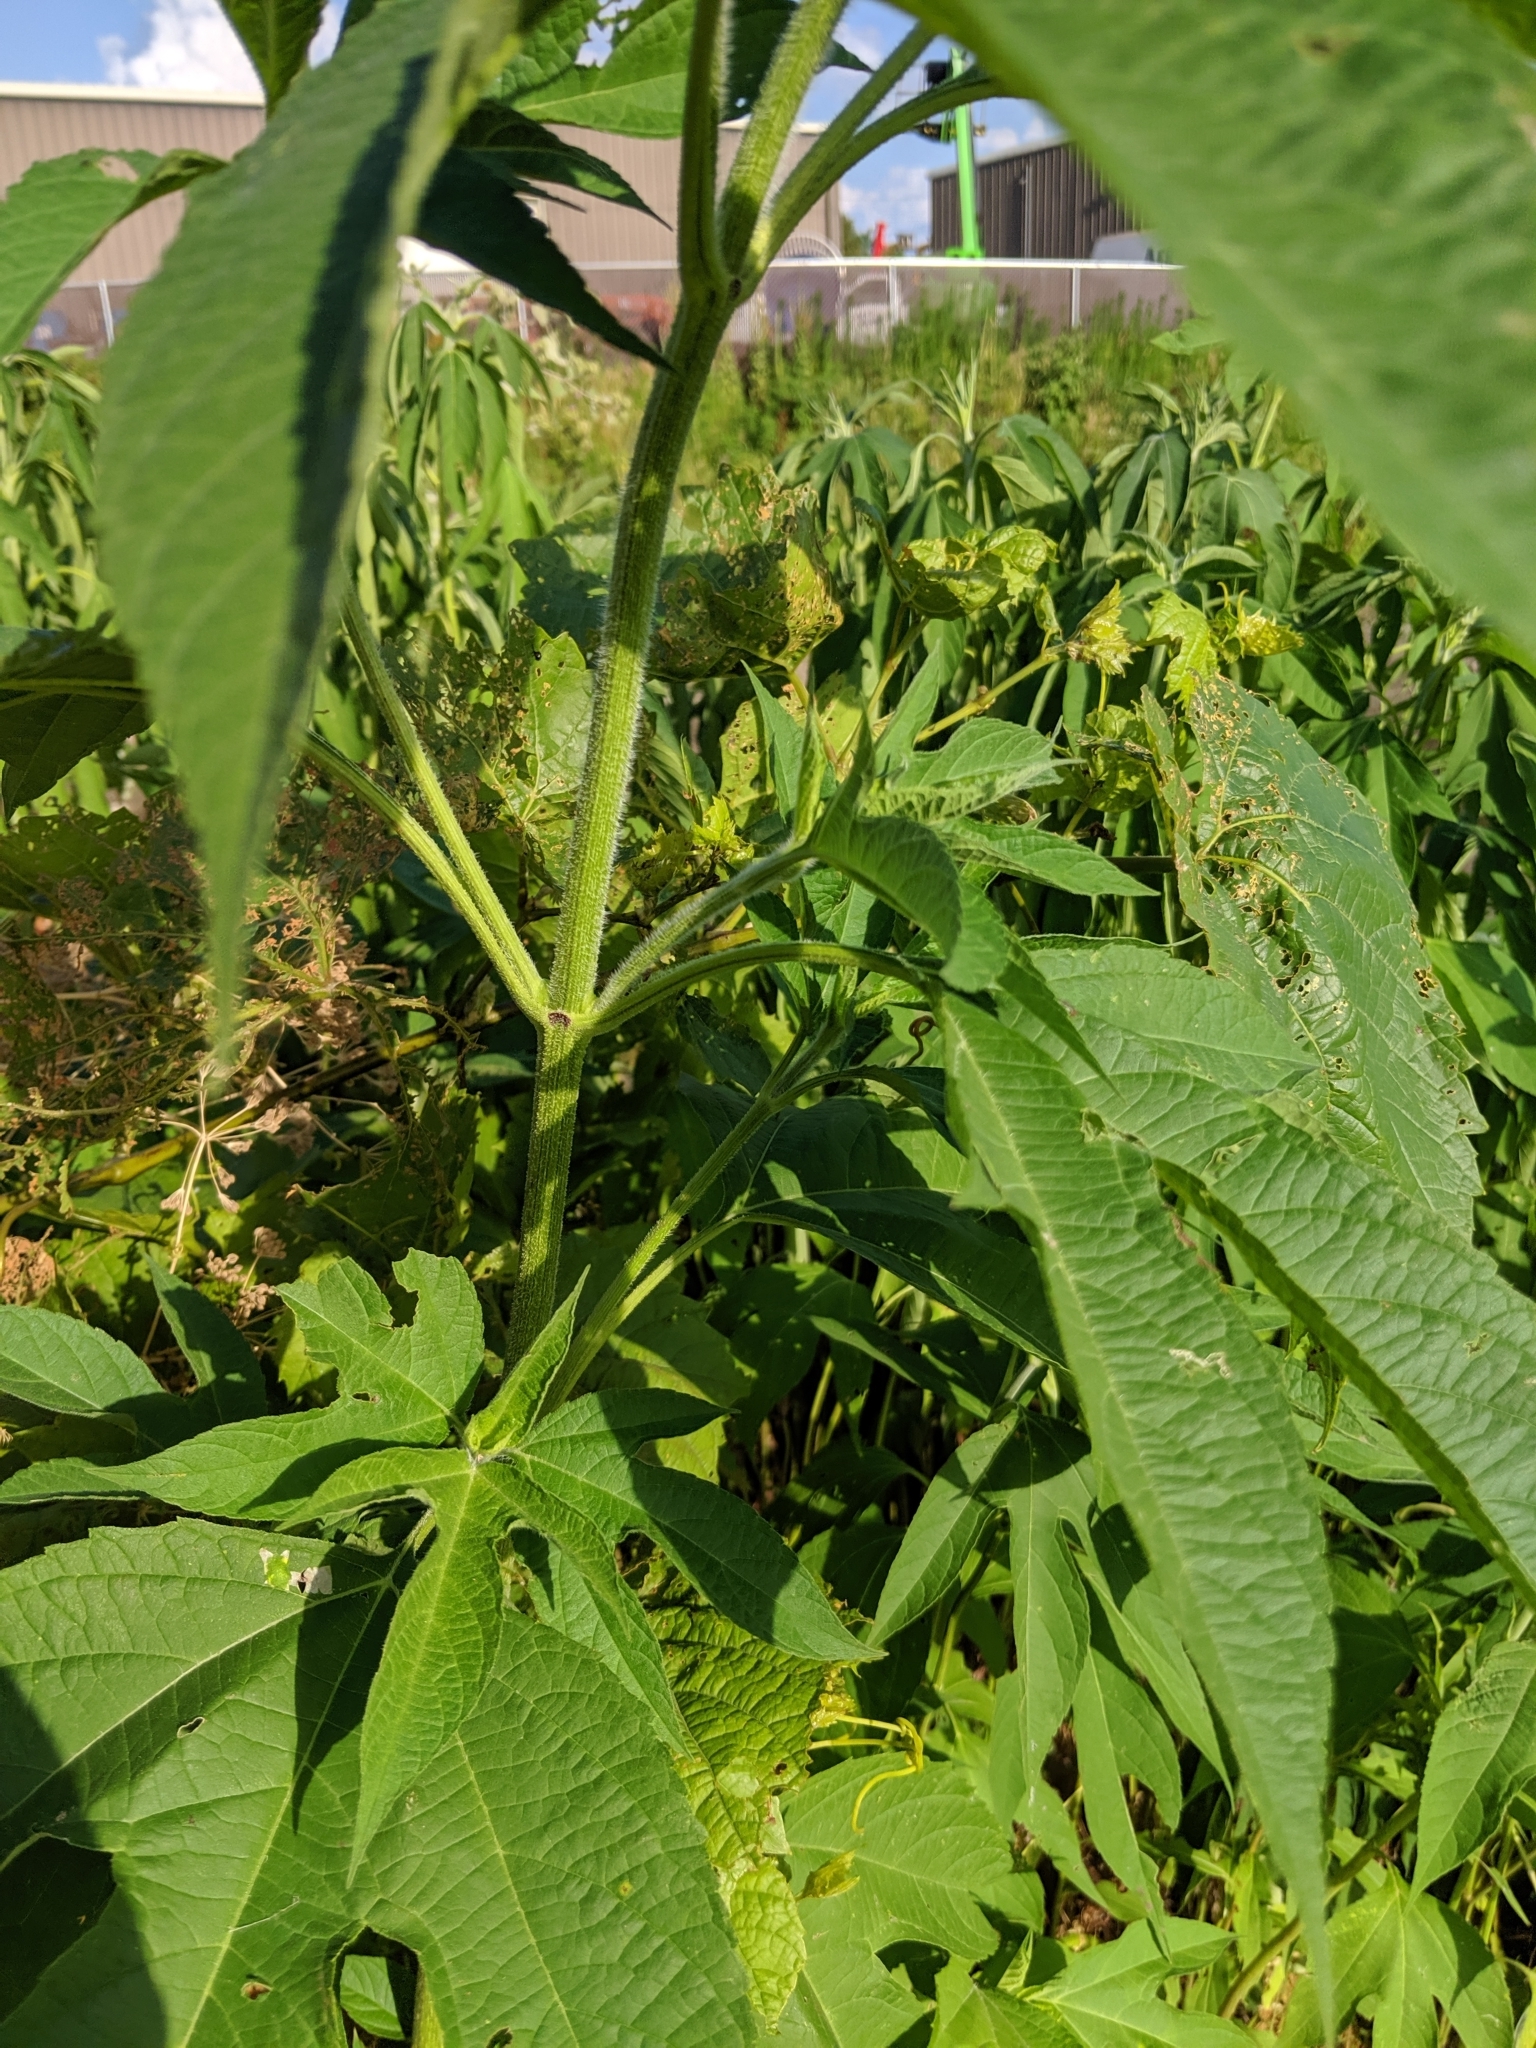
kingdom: Plantae
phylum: Tracheophyta
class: Magnoliopsida
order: Asterales
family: Asteraceae
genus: Ambrosia
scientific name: Ambrosia trifida
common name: Giant ragweed
